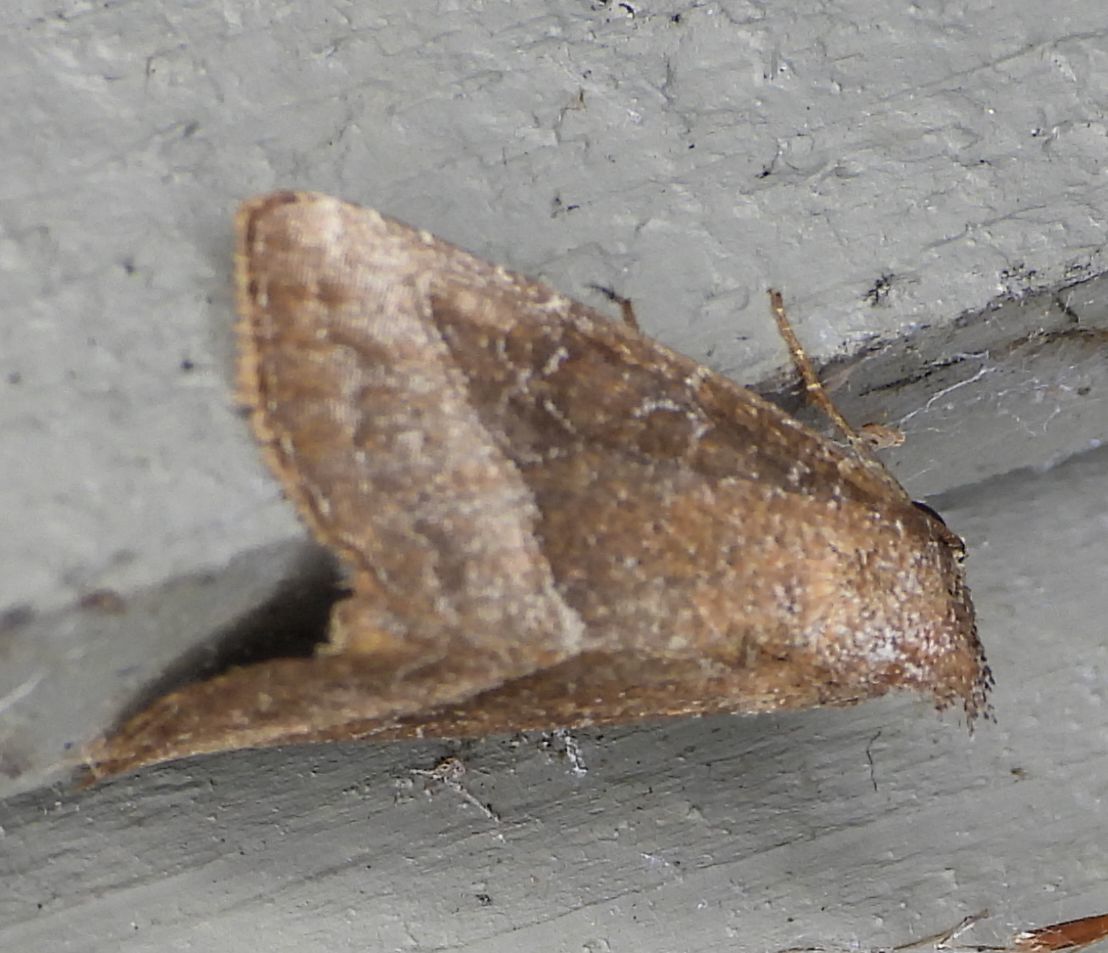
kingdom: Animalia
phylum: Arthropoda
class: Insecta
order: Lepidoptera
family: Noctuidae
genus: Ogdoconta
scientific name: Ogdoconta cinereola
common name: Common pinkband
